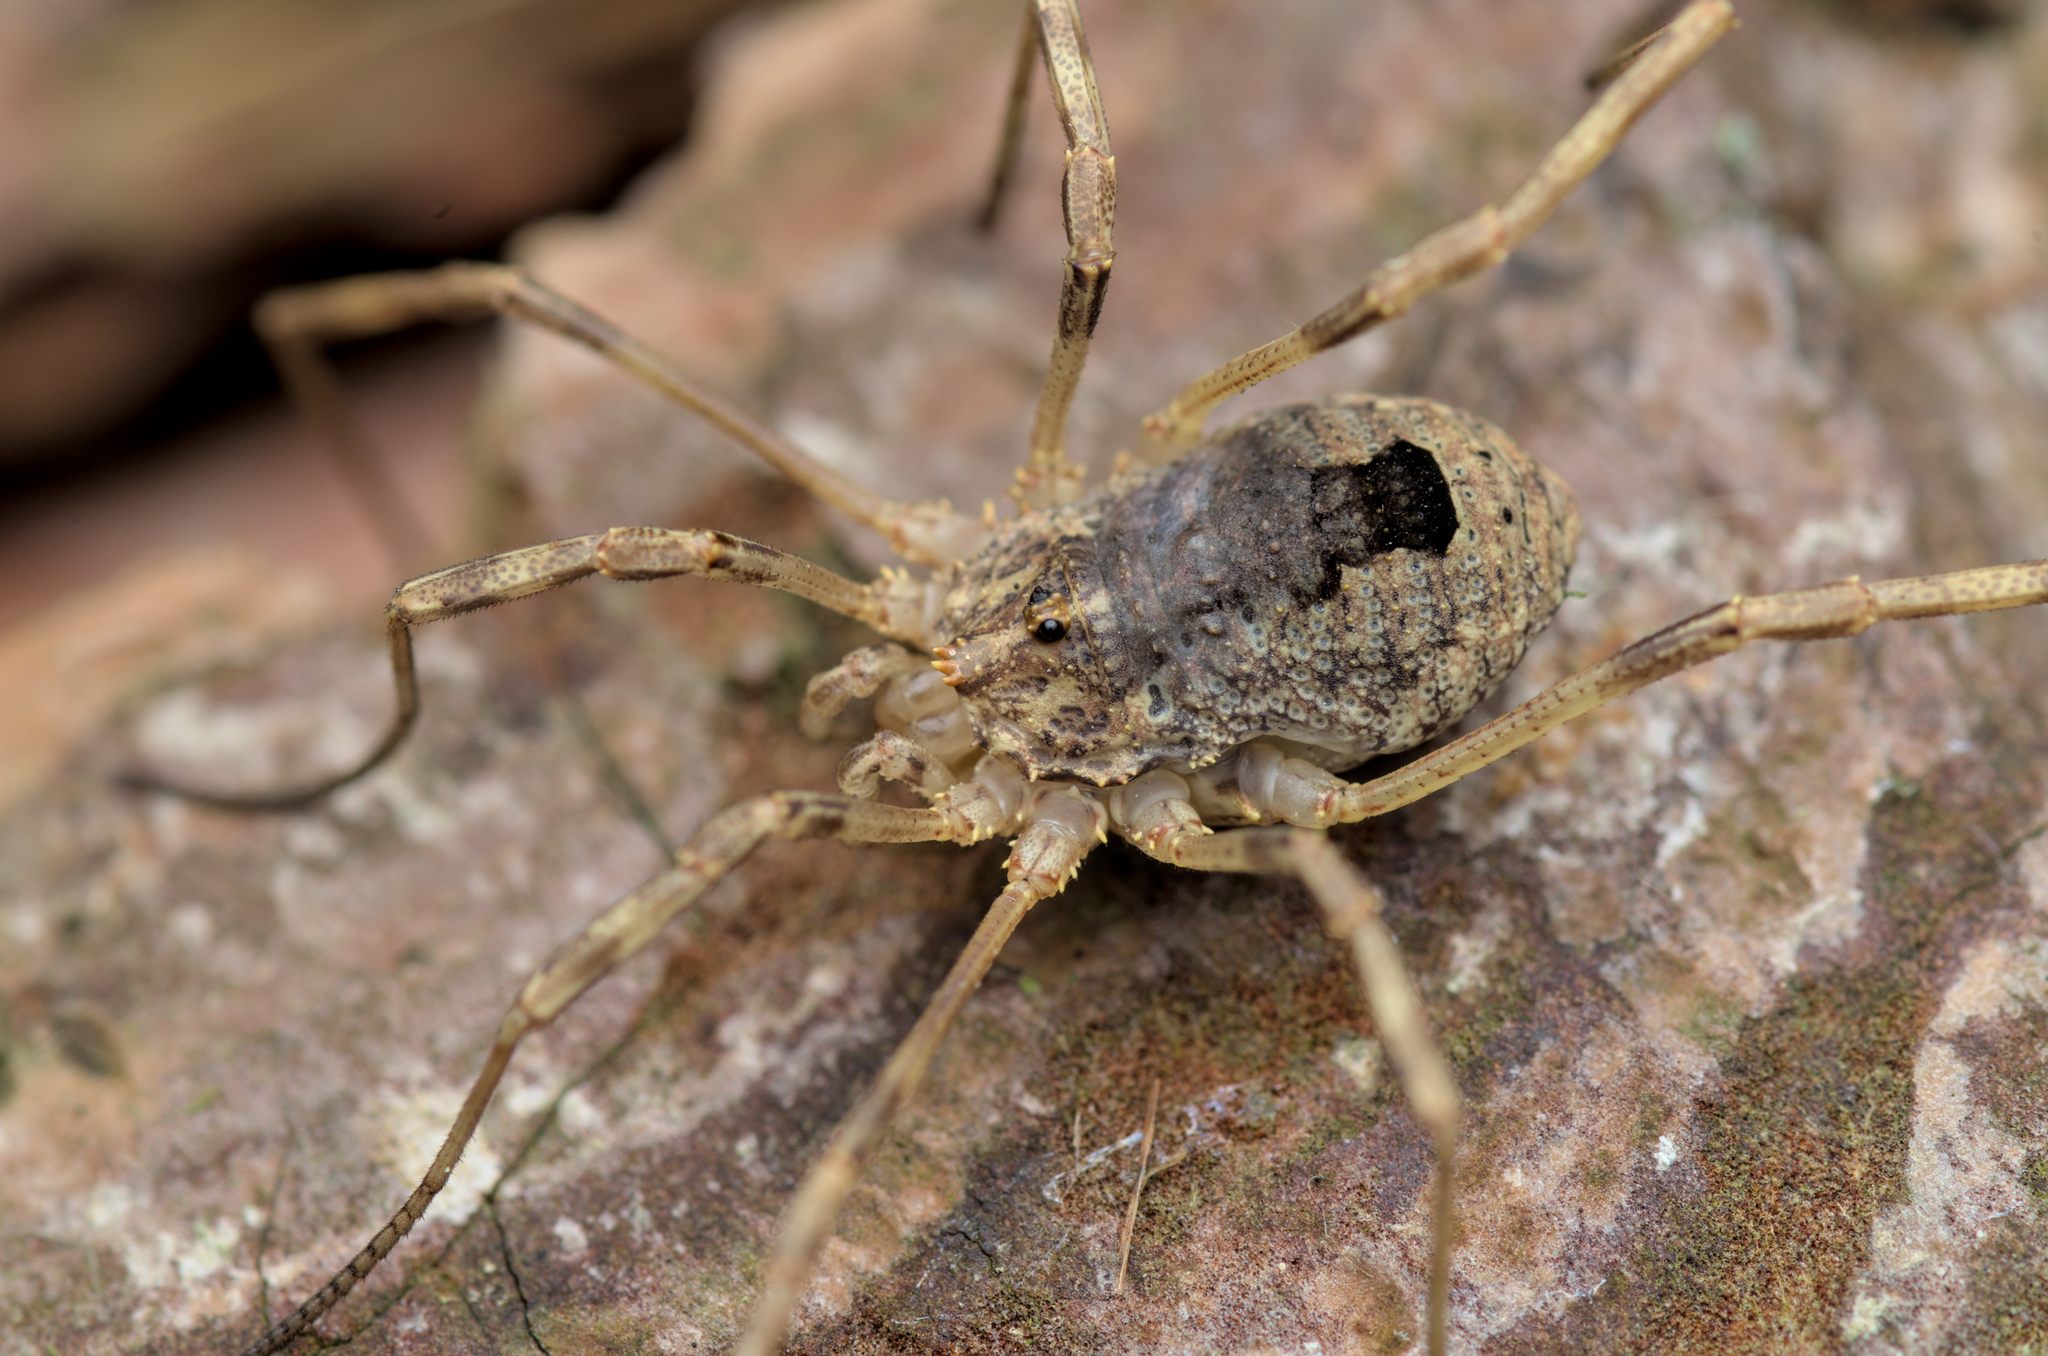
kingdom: Animalia
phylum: Arthropoda
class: Arachnida
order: Opiliones
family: Phalangiidae
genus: Odiellus
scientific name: Odiellus spinosus
